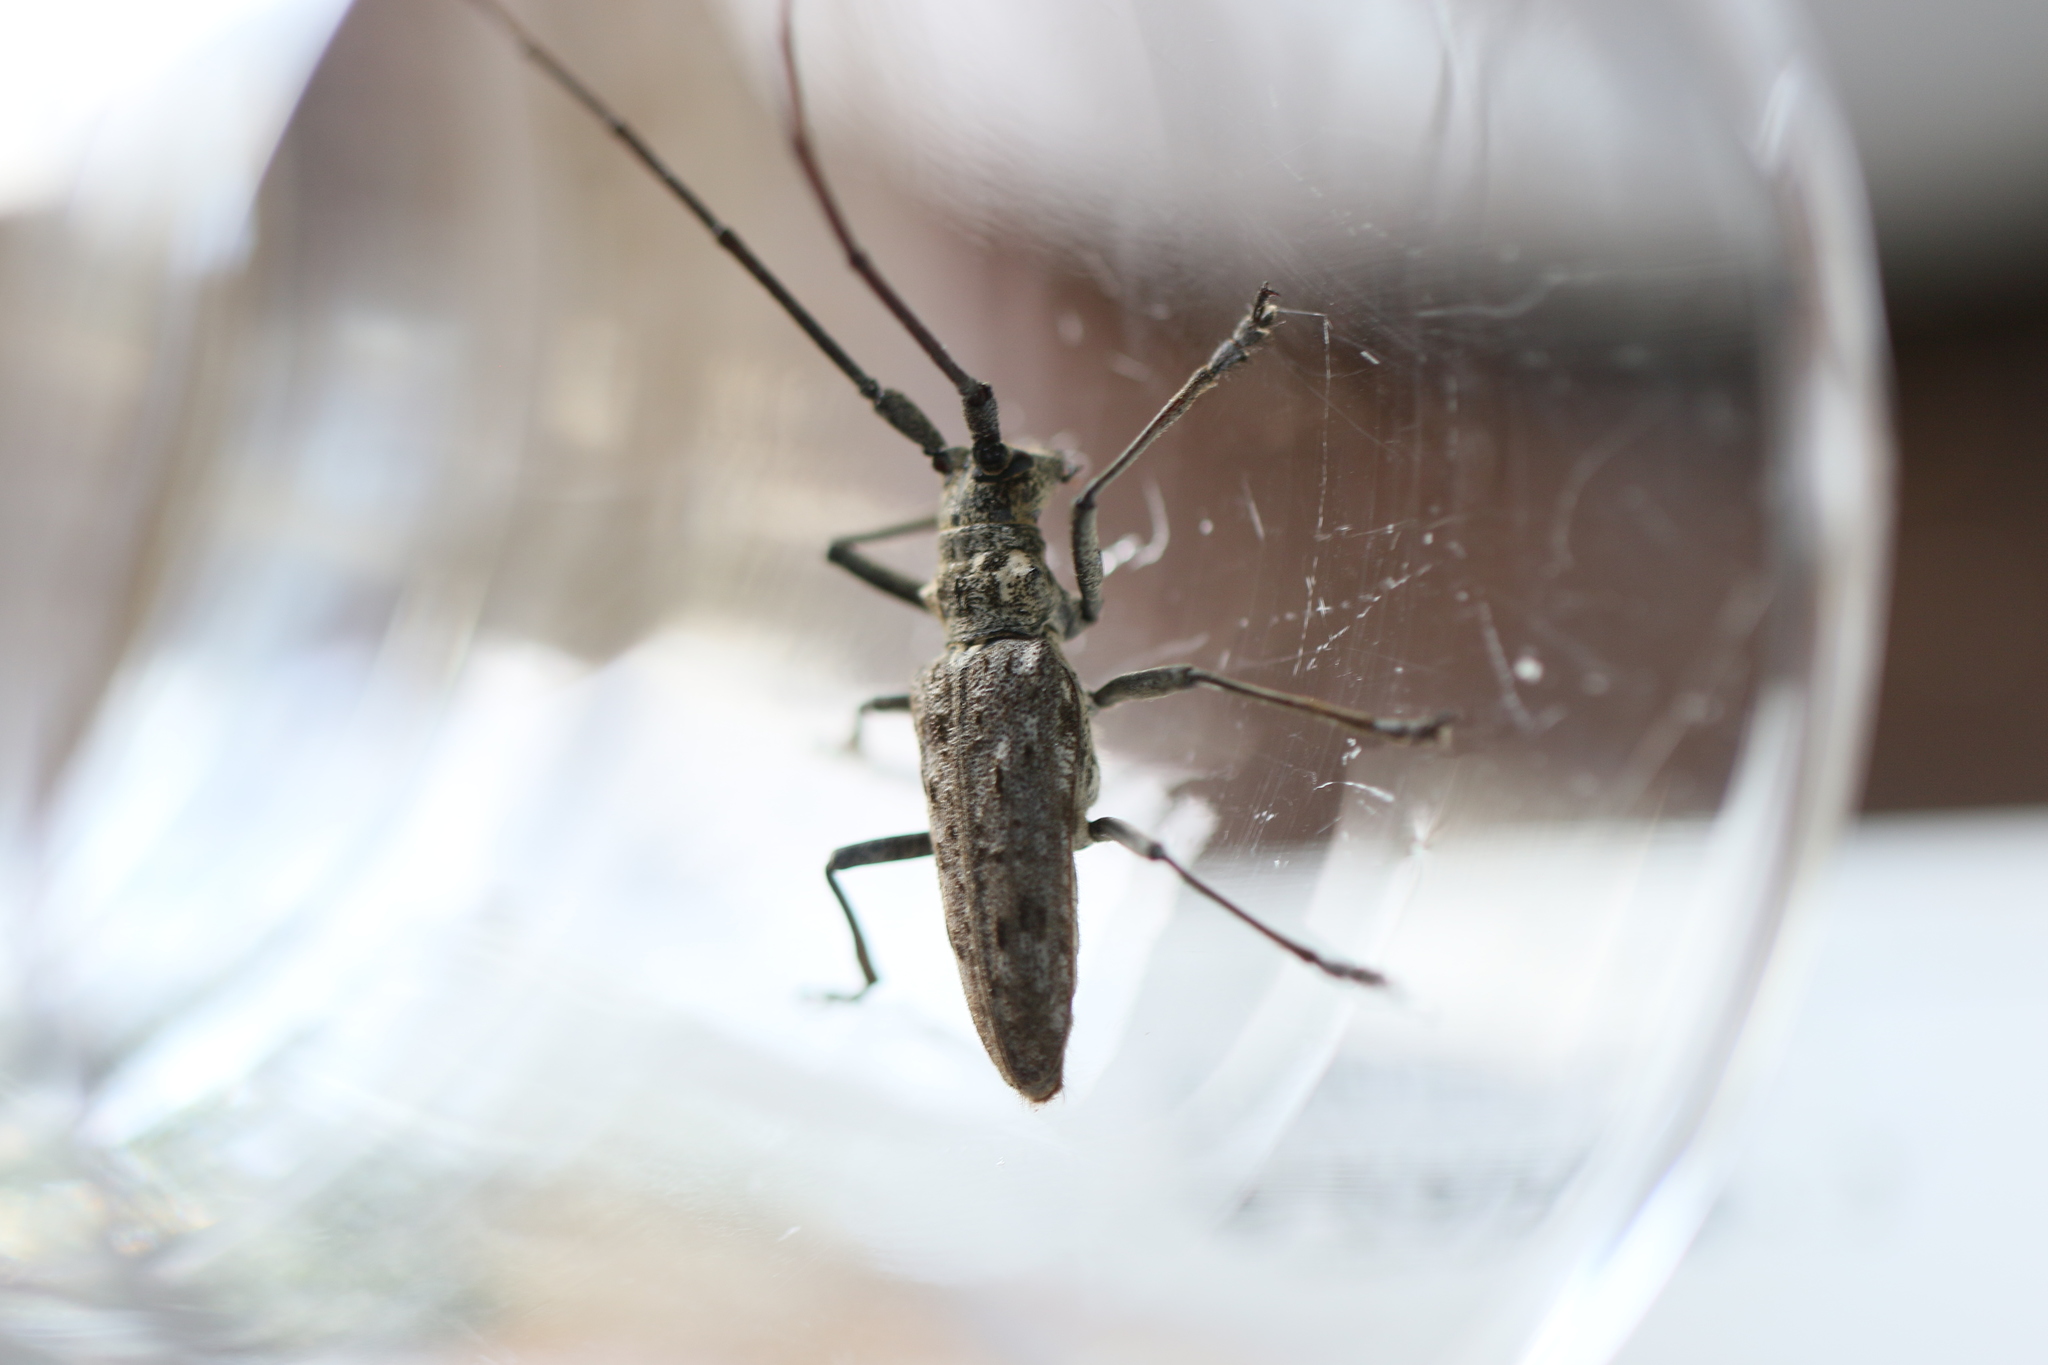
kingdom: Animalia
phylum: Arthropoda
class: Insecta
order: Coleoptera
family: Cerambycidae
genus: Monochamus
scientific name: Monochamus notatus
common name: Northeastern pine sawyer beetle
